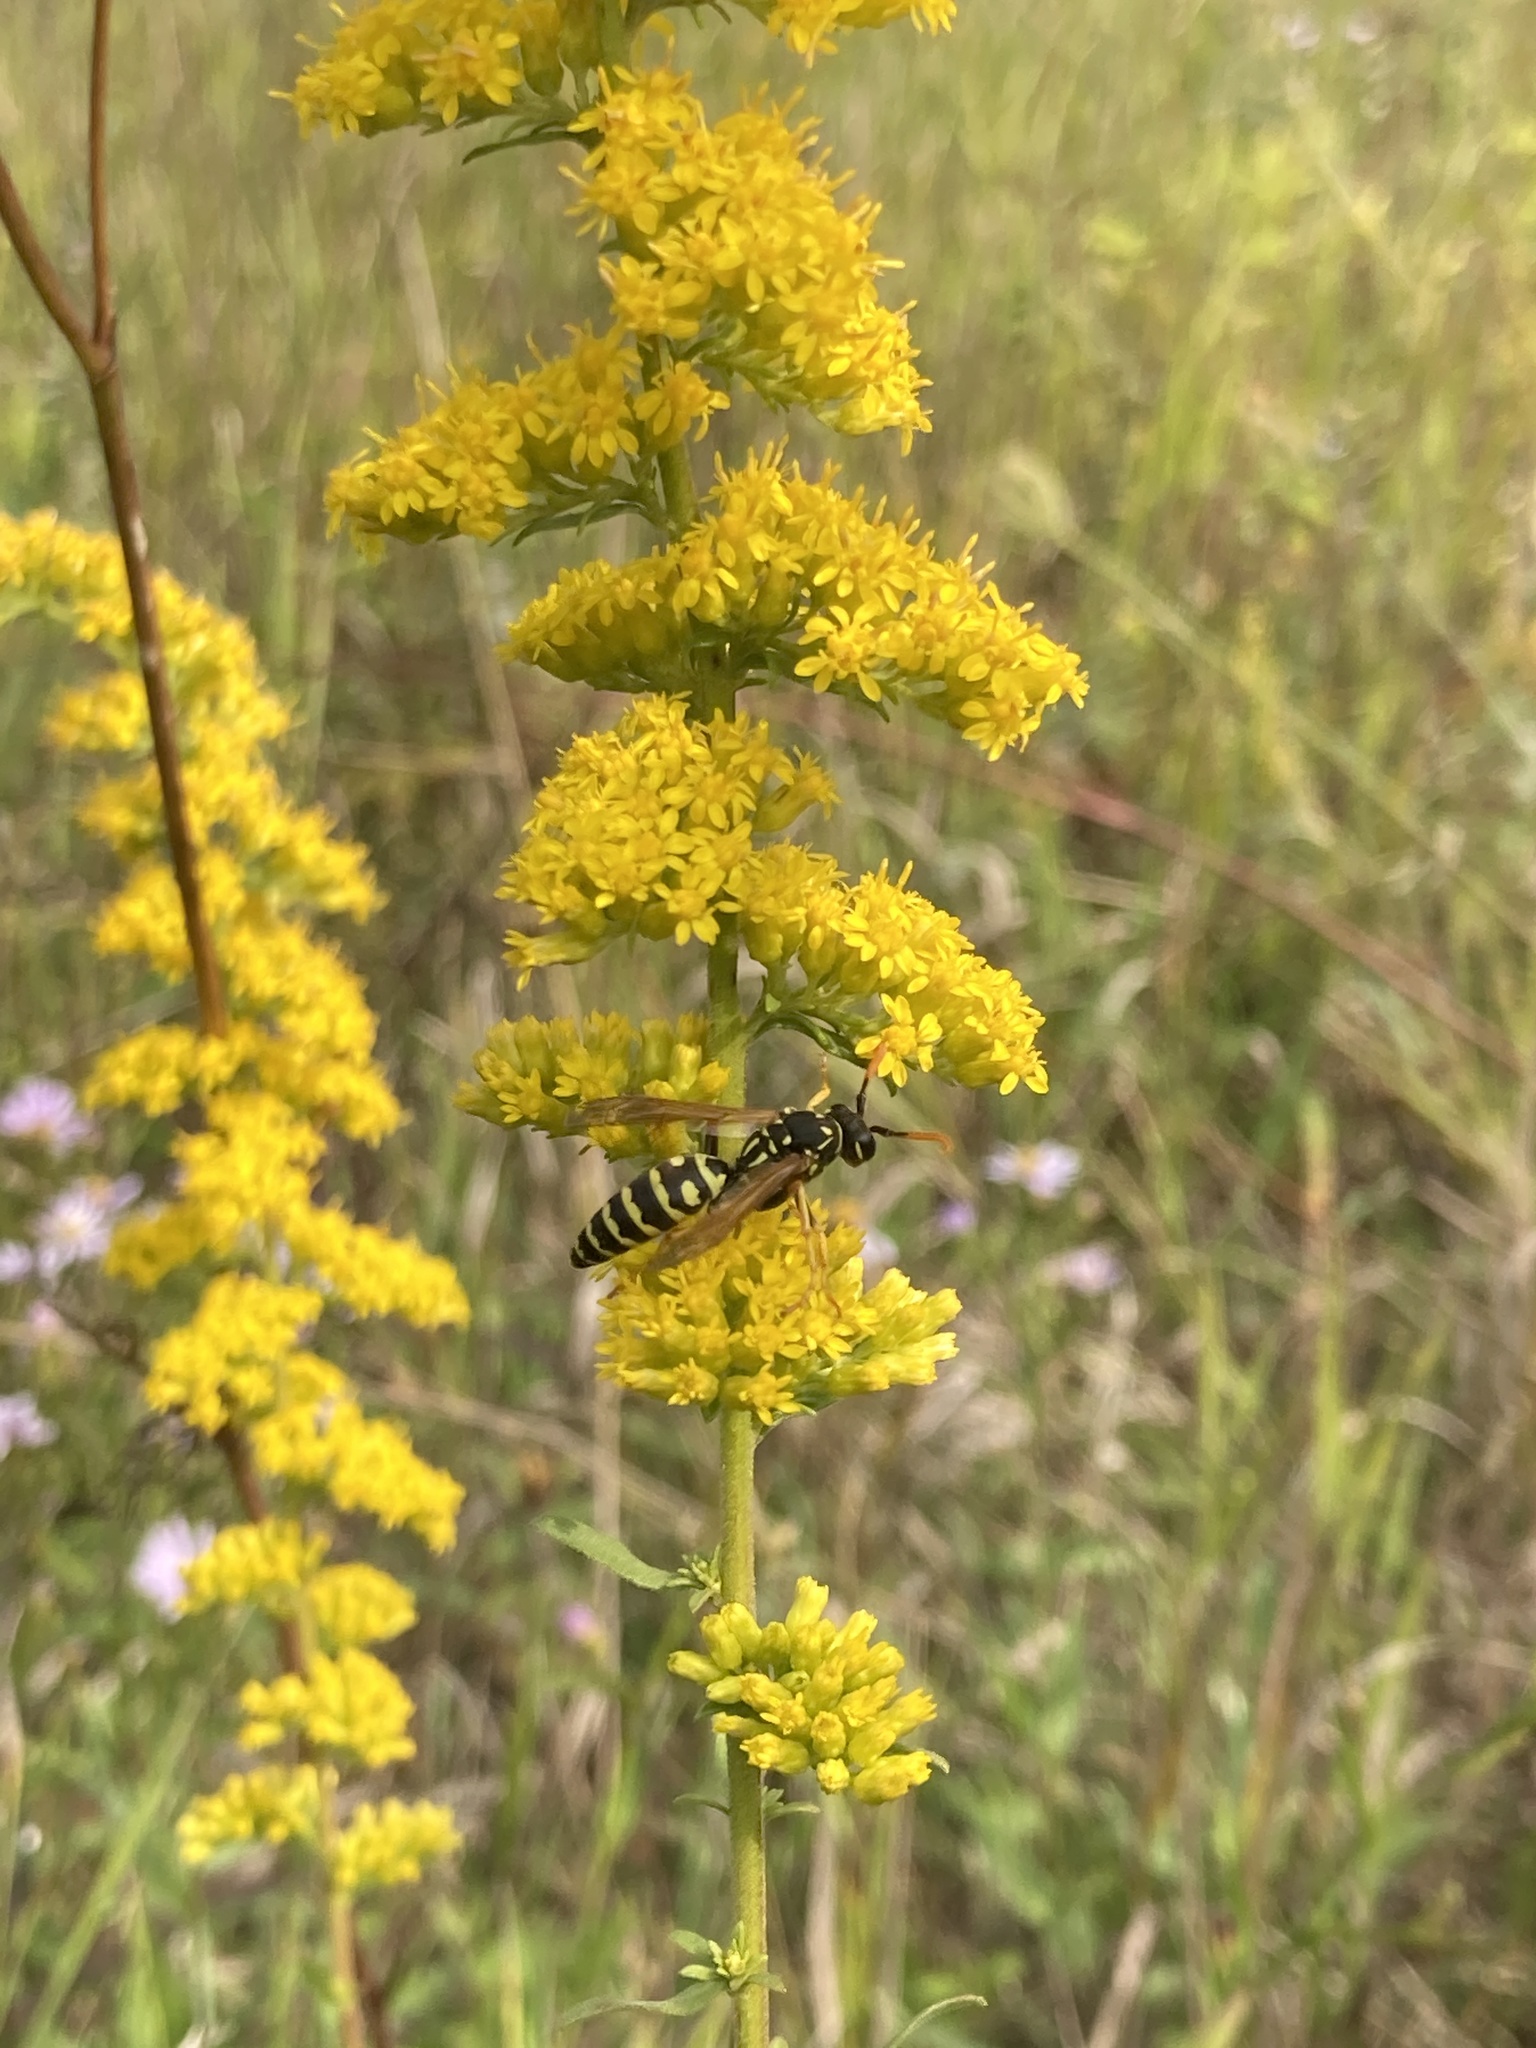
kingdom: Animalia
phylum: Arthropoda
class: Insecta
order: Hymenoptera
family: Eumenidae
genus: Polistes
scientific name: Polistes dominula
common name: Paper wasp
